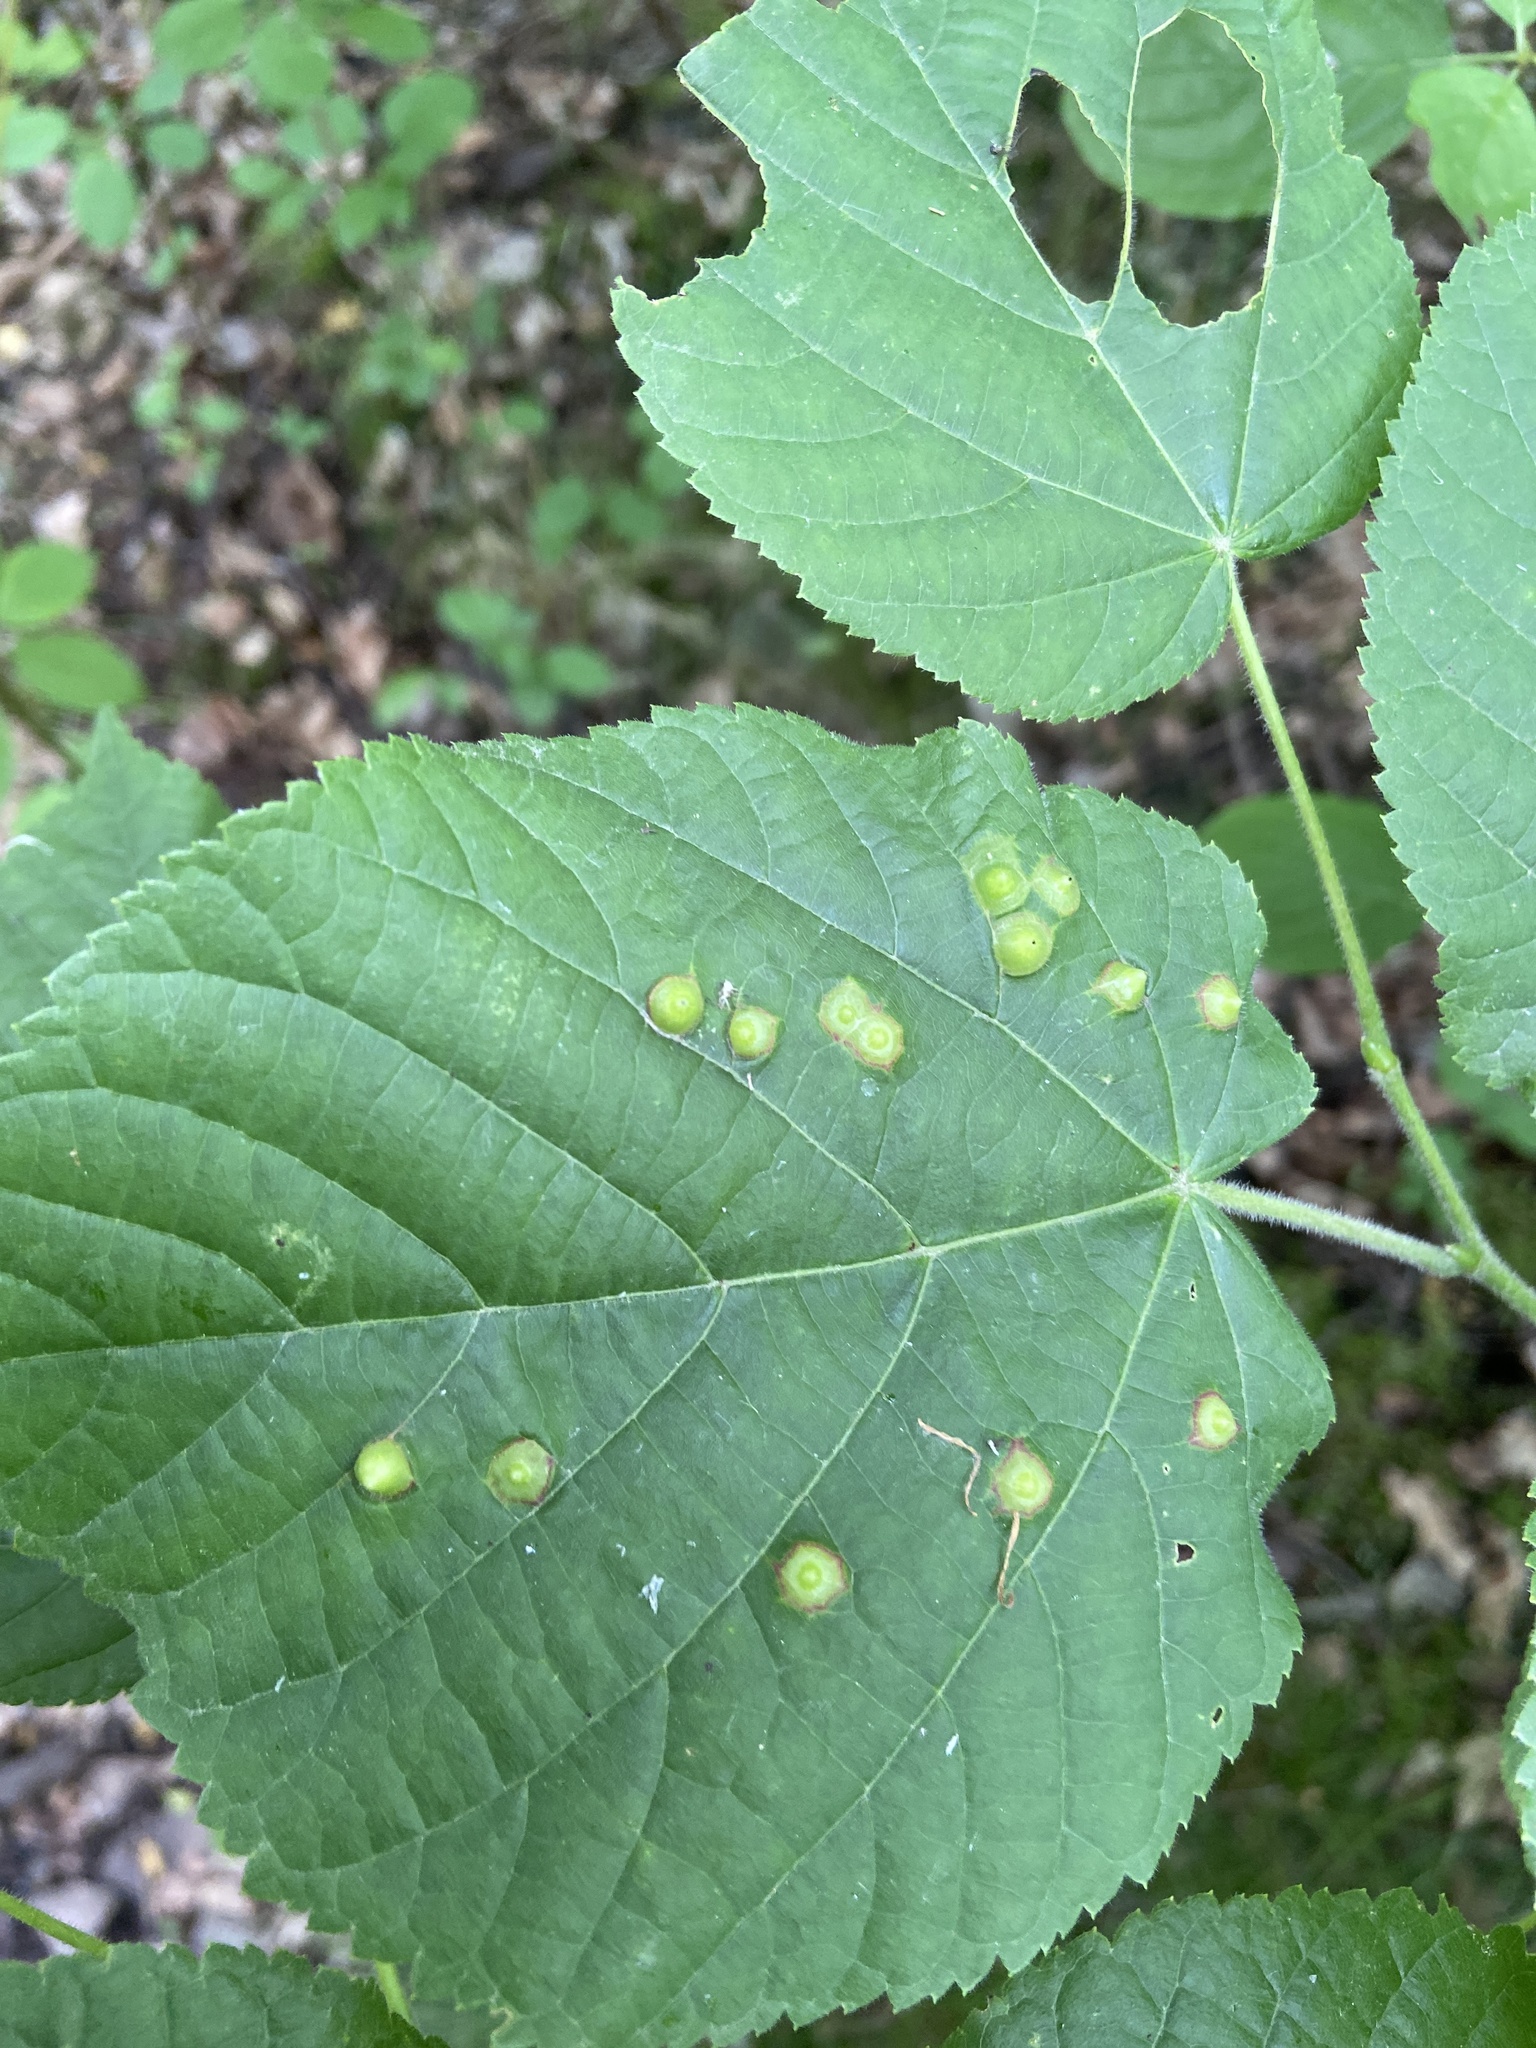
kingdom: Animalia
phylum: Arthropoda
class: Insecta
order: Diptera
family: Cecidomyiidae
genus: Didymomyia
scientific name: Didymomyia tiliacea
